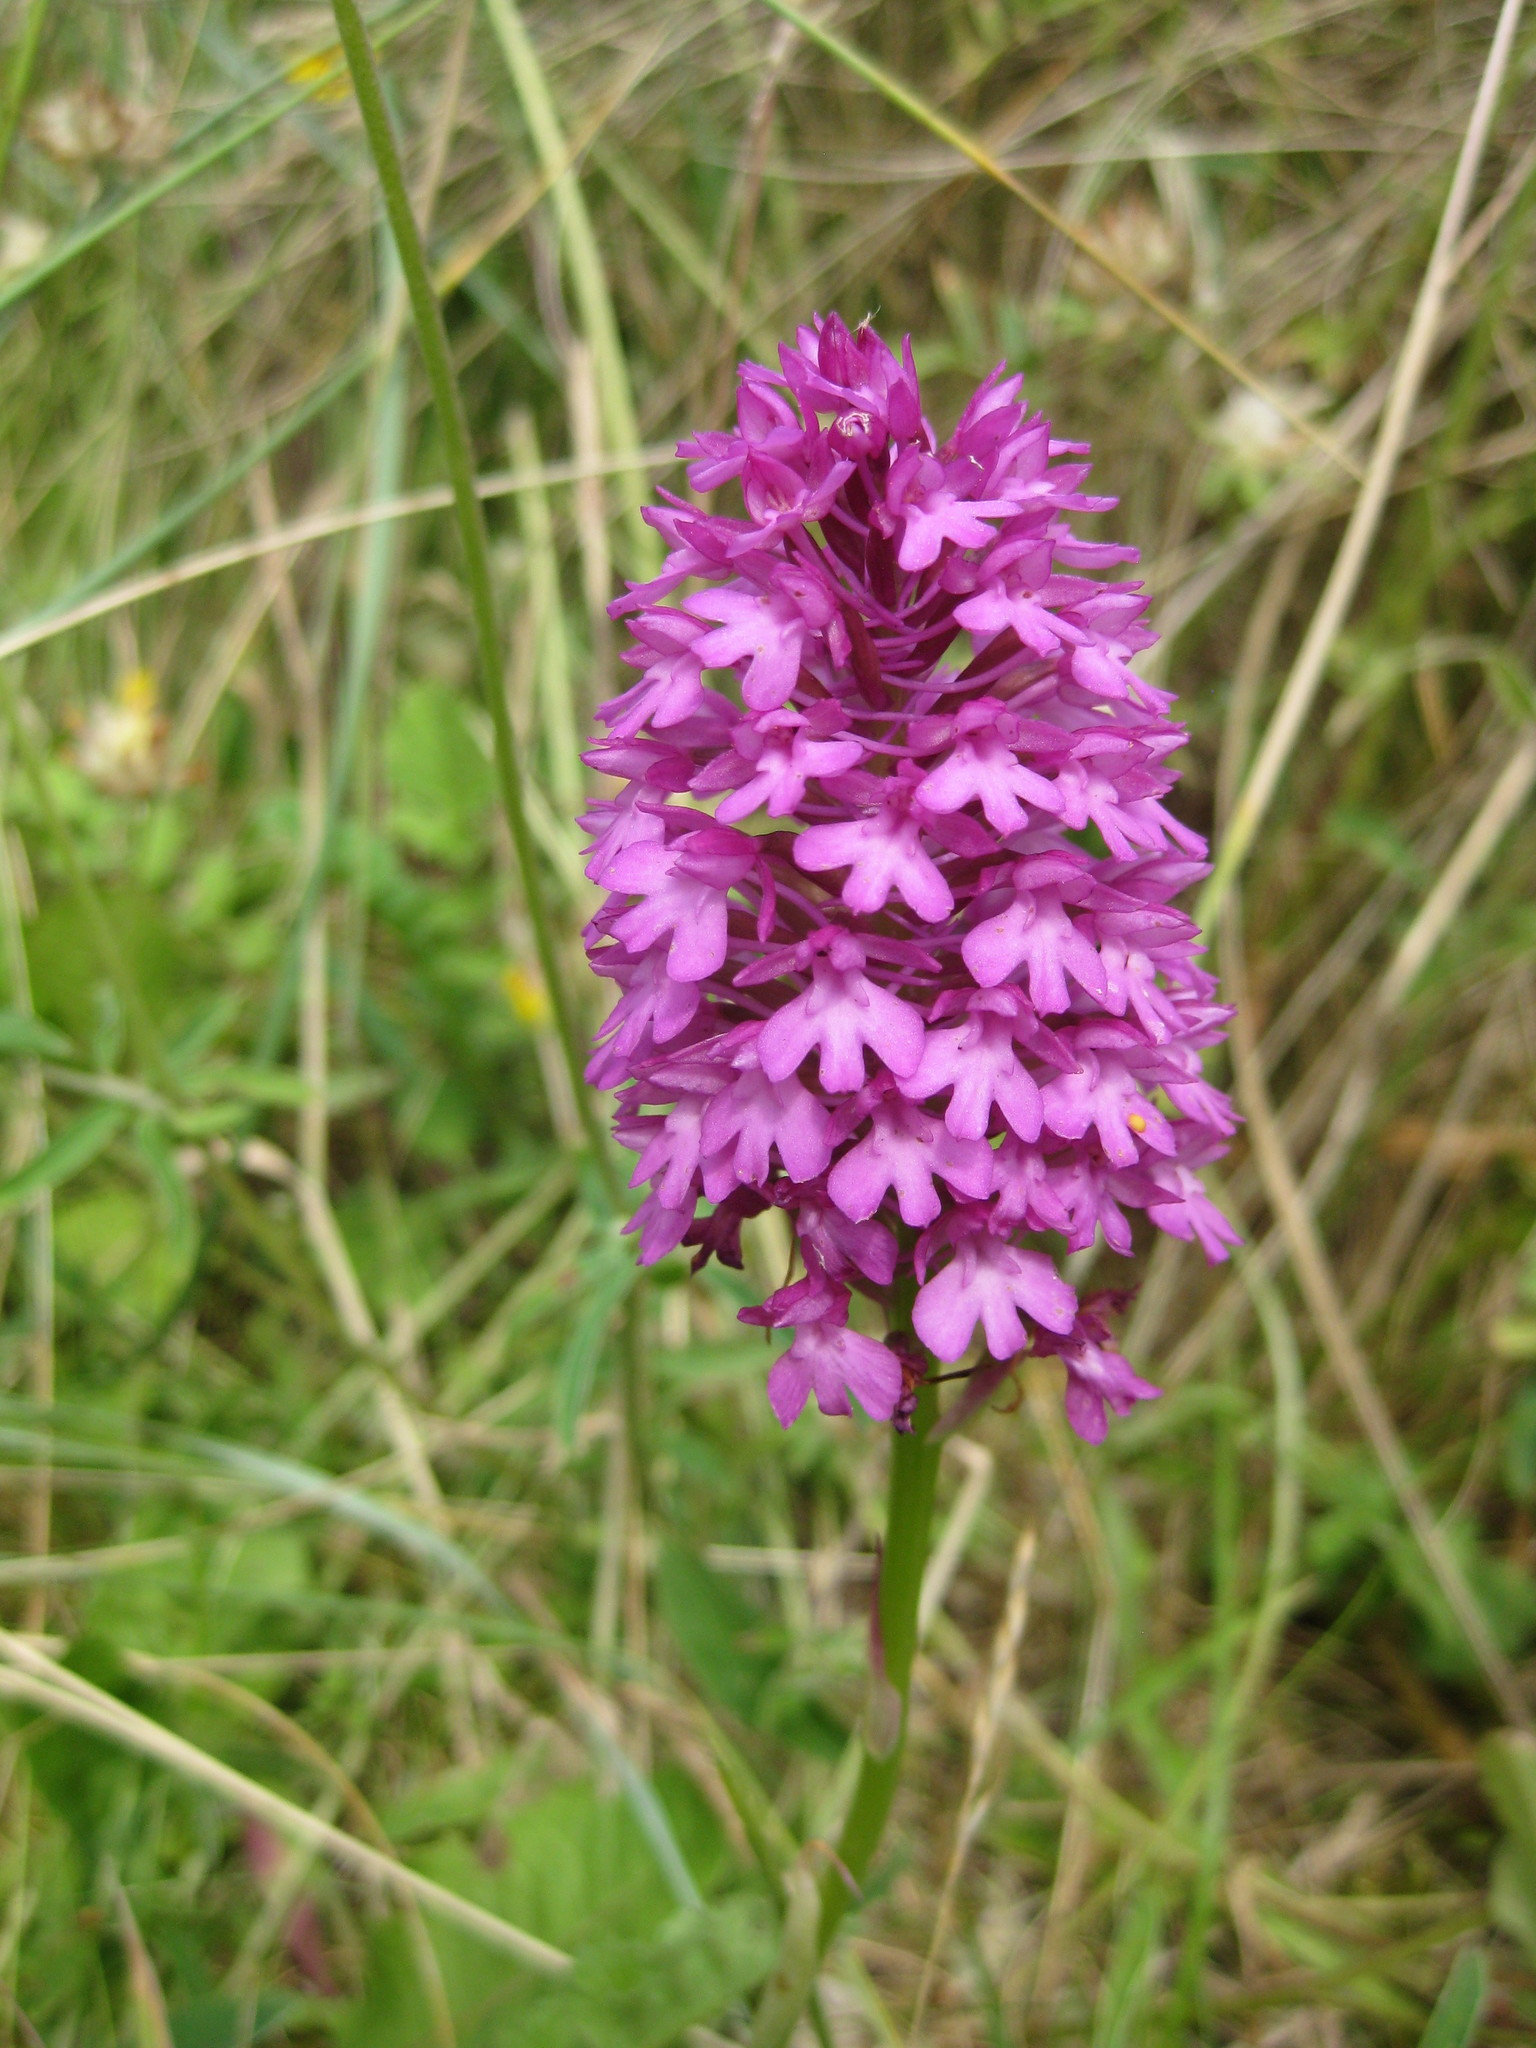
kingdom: Plantae
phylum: Tracheophyta
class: Liliopsida
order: Asparagales
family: Orchidaceae
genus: Anacamptis
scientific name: Anacamptis pyramidalis
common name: Pyramidal orchid
